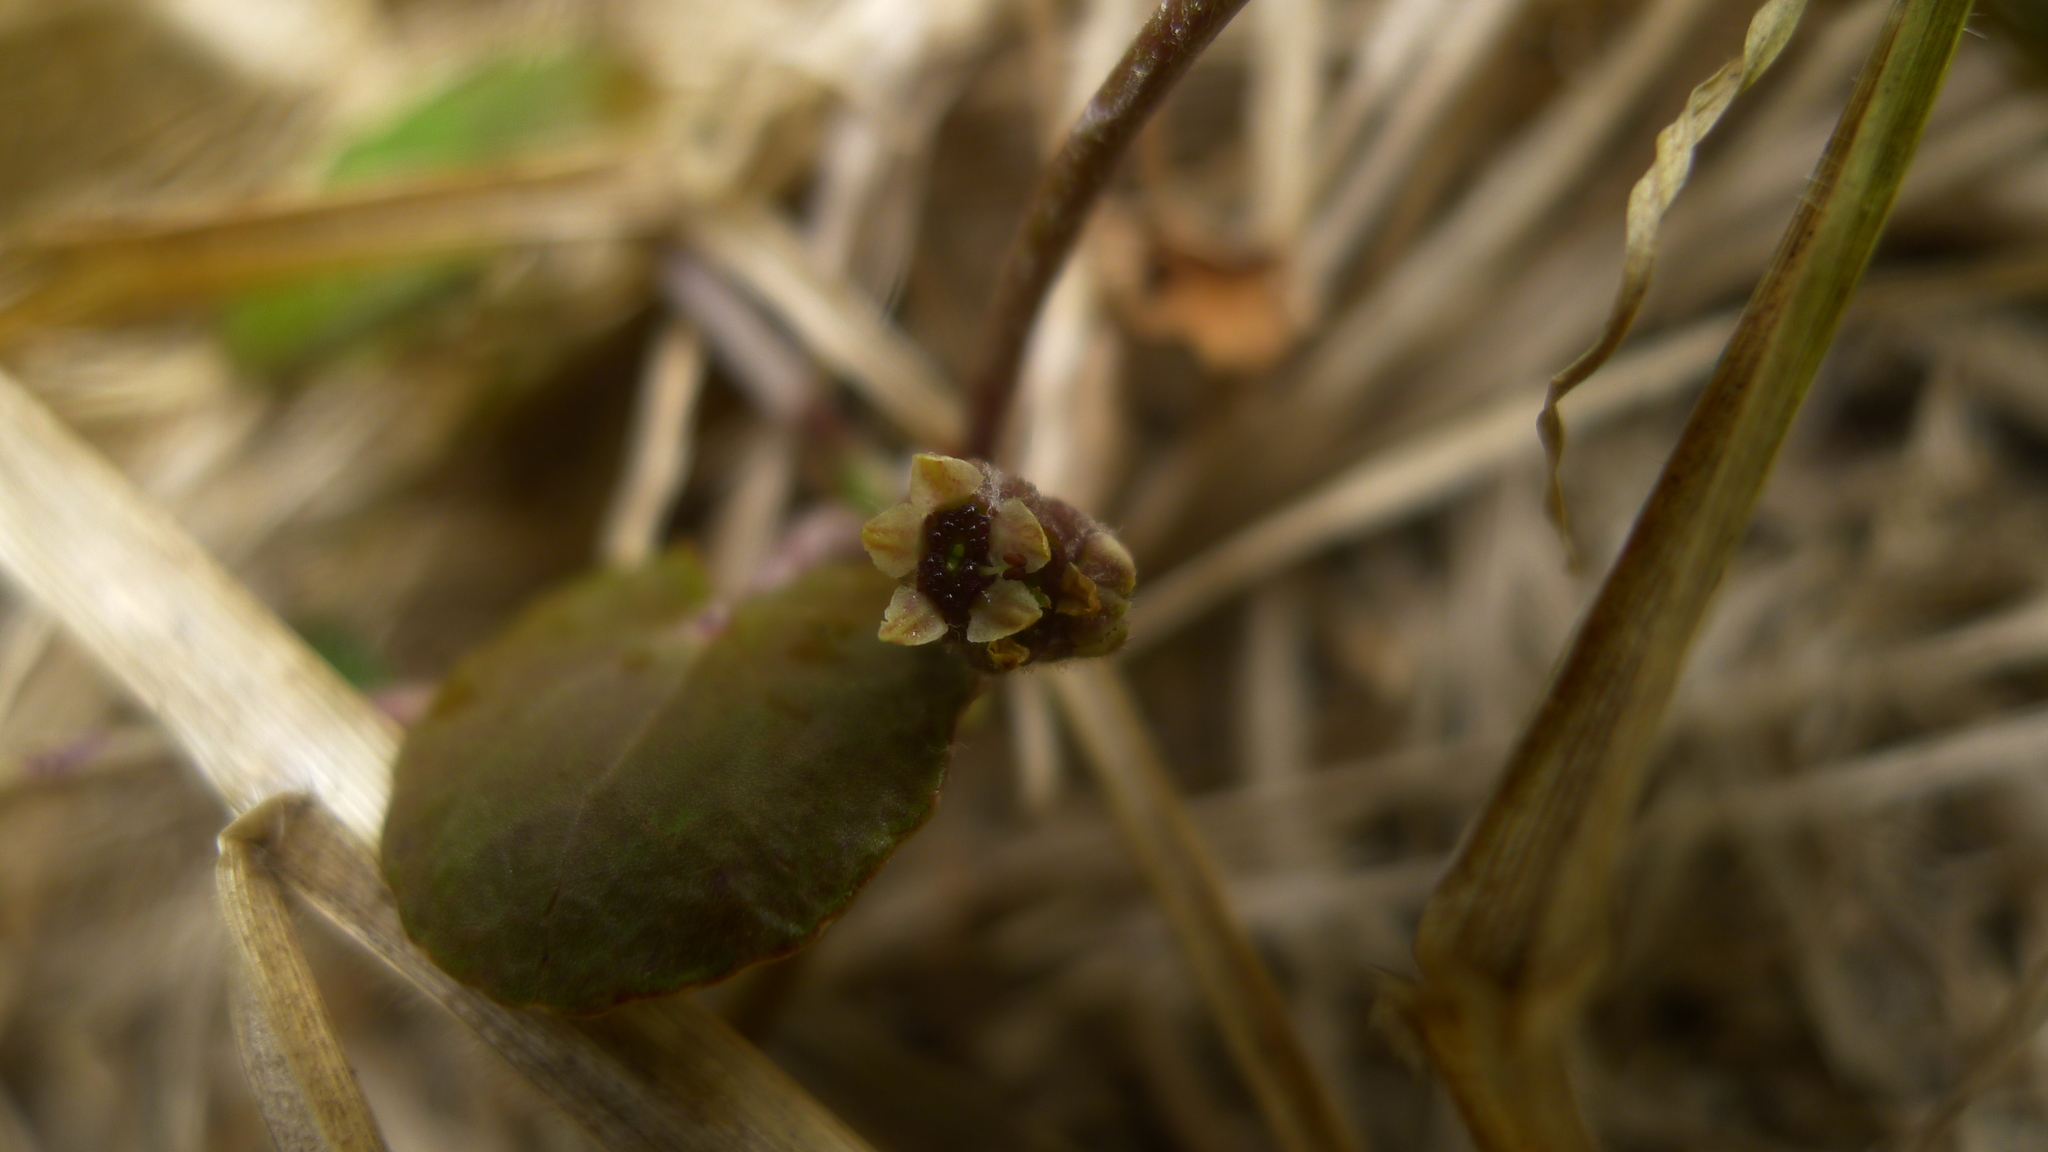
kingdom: Plantae
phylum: Tracheophyta
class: Magnoliopsida
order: Apiales
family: Apiaceae
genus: Centella
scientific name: Centella uniflora
